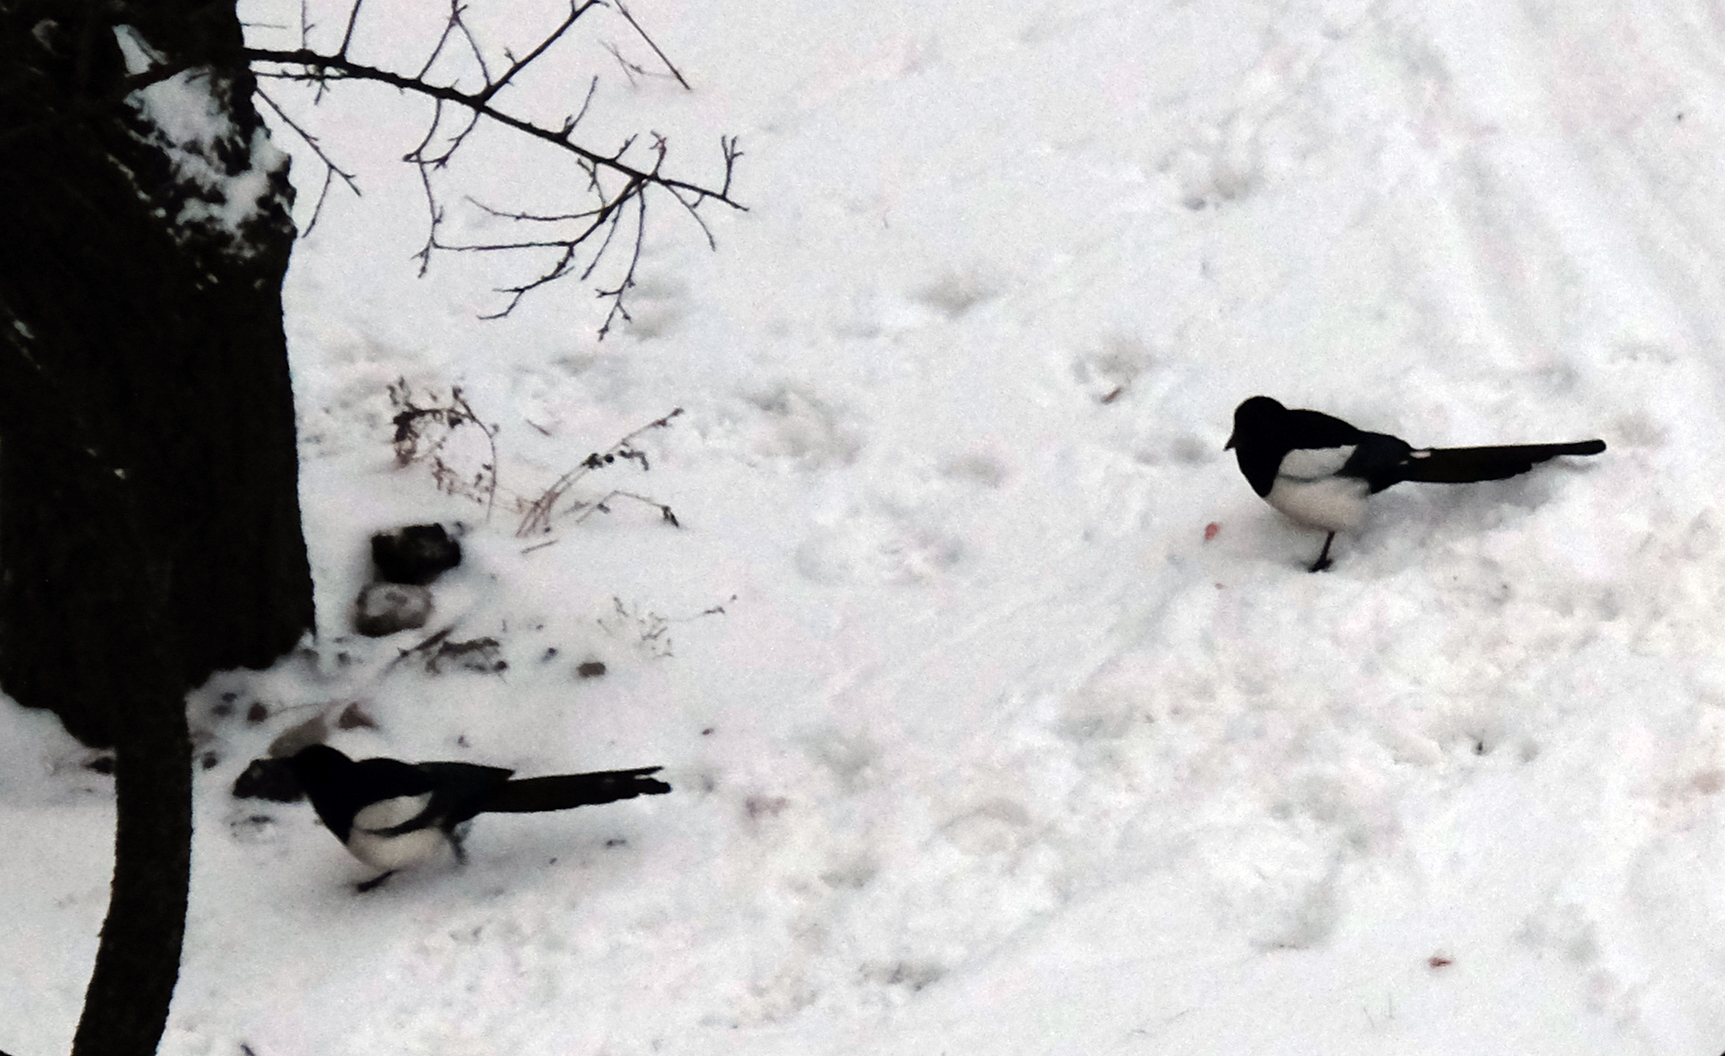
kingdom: Animalia
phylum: Chordata
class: Aves
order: Passeriformes
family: Corvidae
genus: Pica
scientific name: Pica pica
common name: Eurasian magpie
